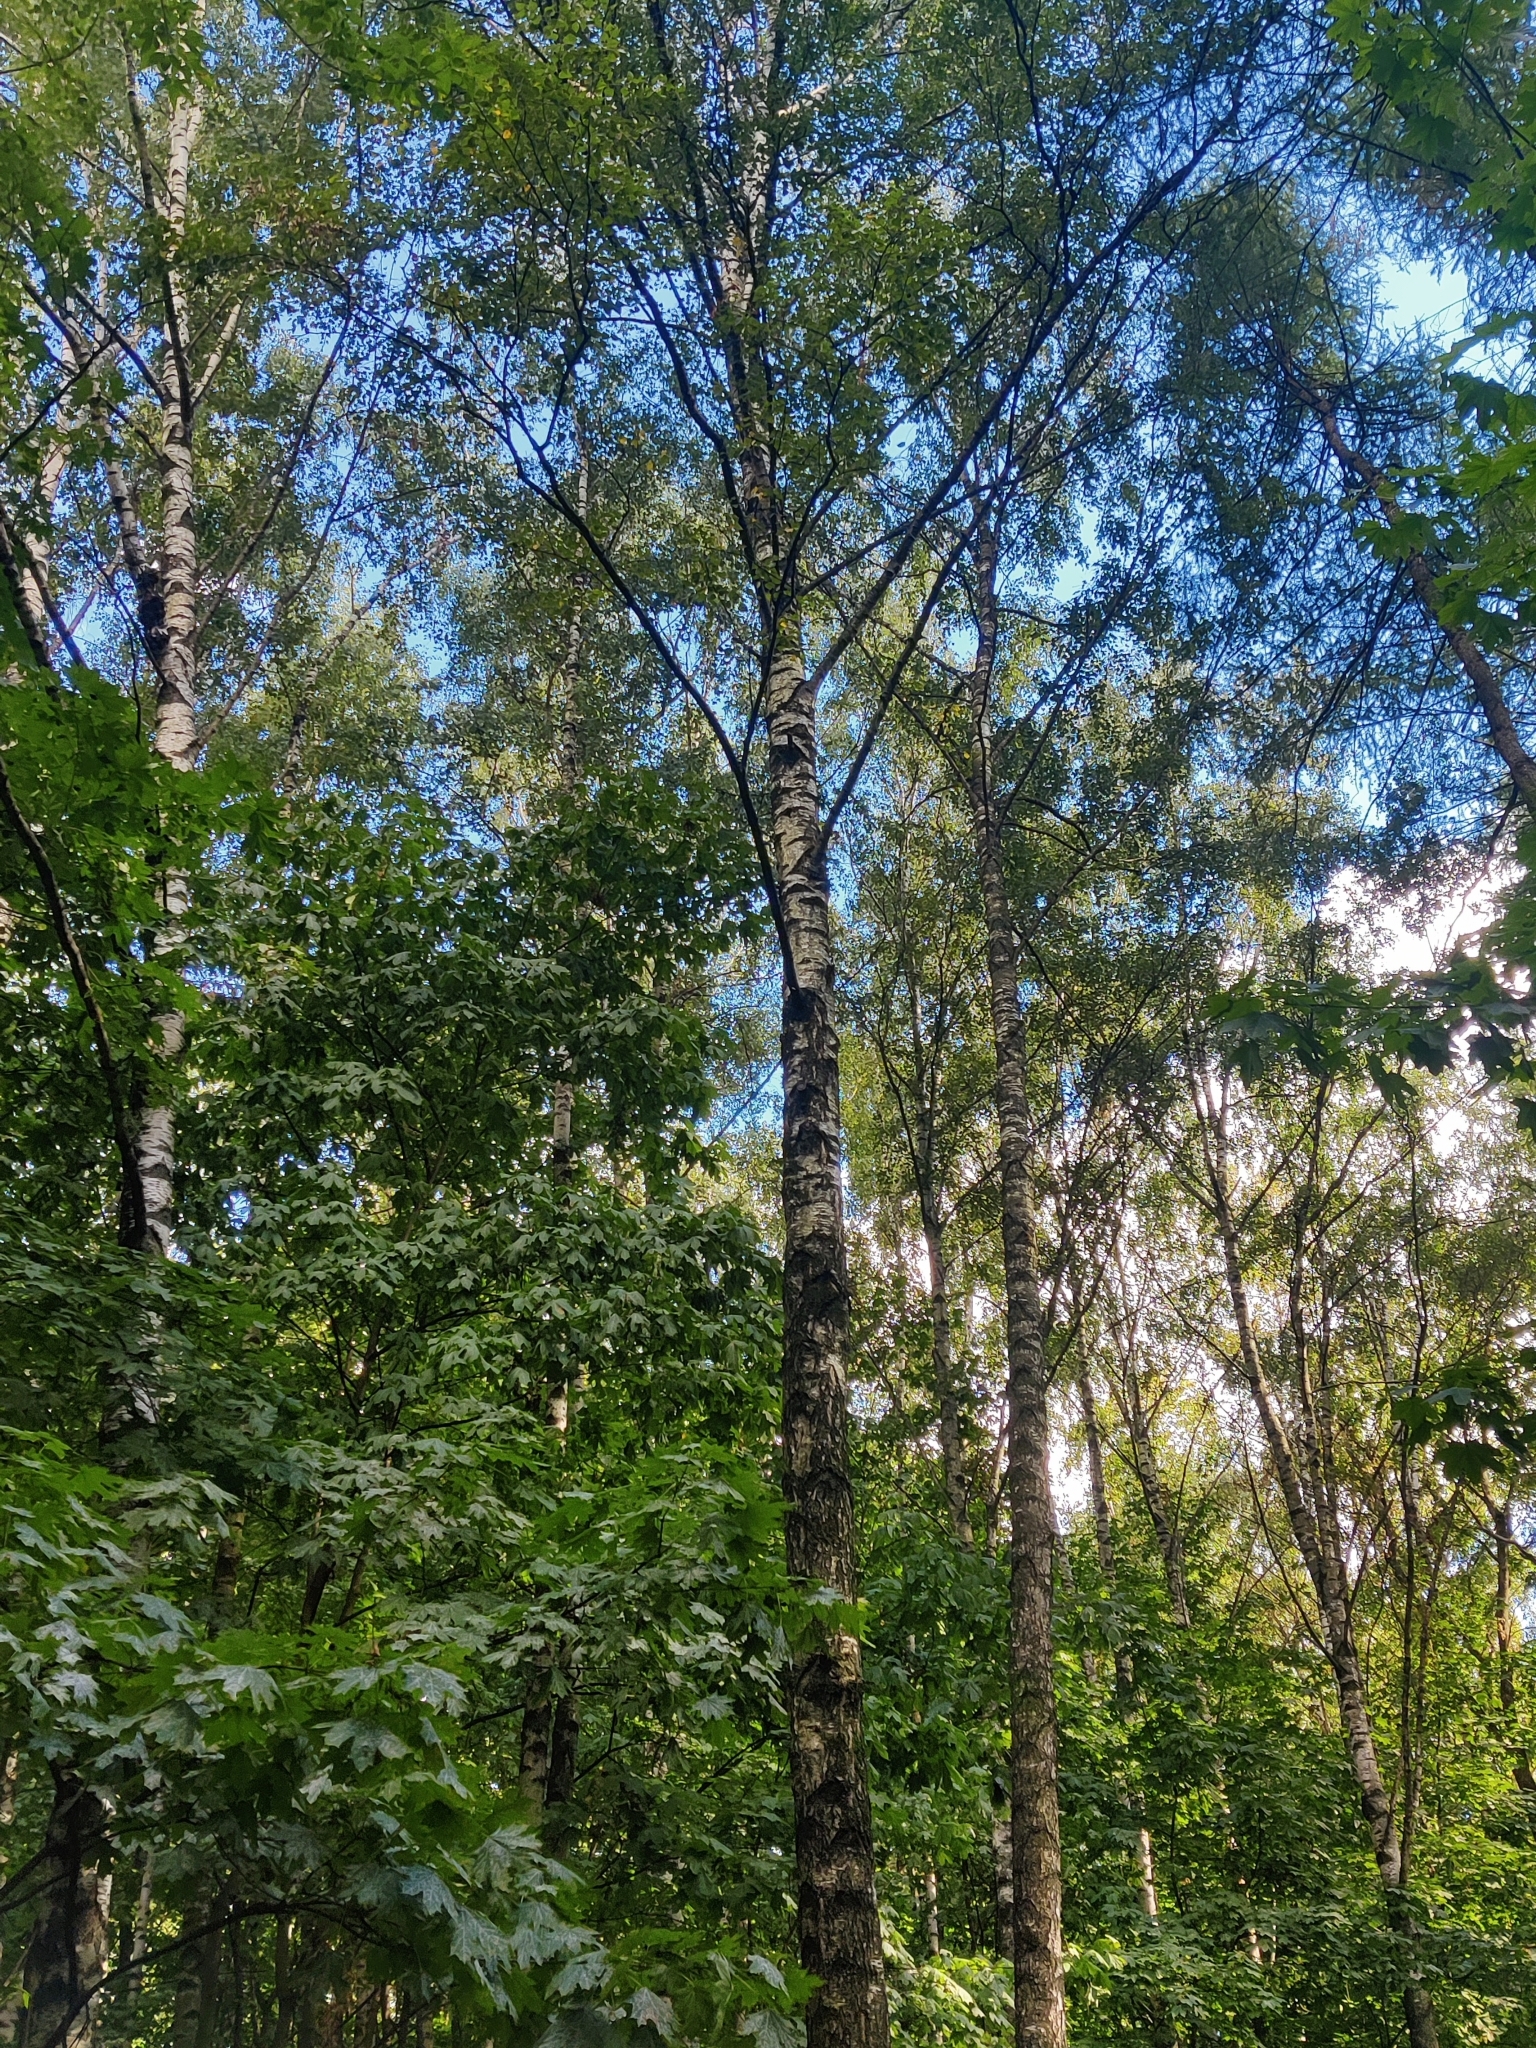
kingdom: Plantae
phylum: Tracheophyta
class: Magnoliopsida
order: Fagales
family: Betulaceae
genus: Betula
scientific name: Betula pendula
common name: Silver birch
